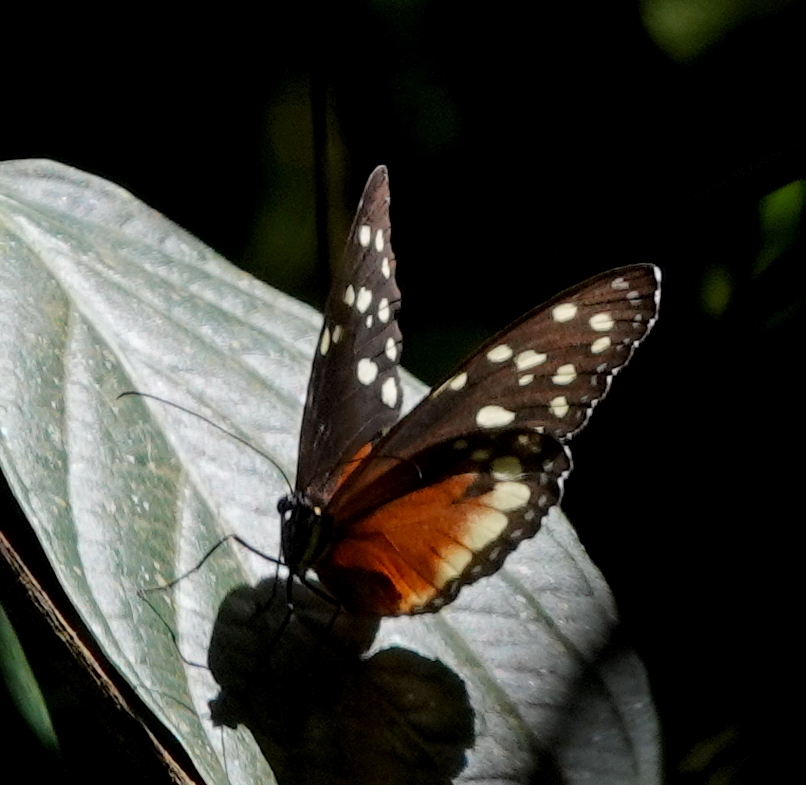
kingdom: Animalia
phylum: Arthropoda
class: Insecta
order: Lepidoptera
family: Nymphalidae
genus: Tithorea
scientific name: Tithorea tarricina
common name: Cream-spotted tigerwing
